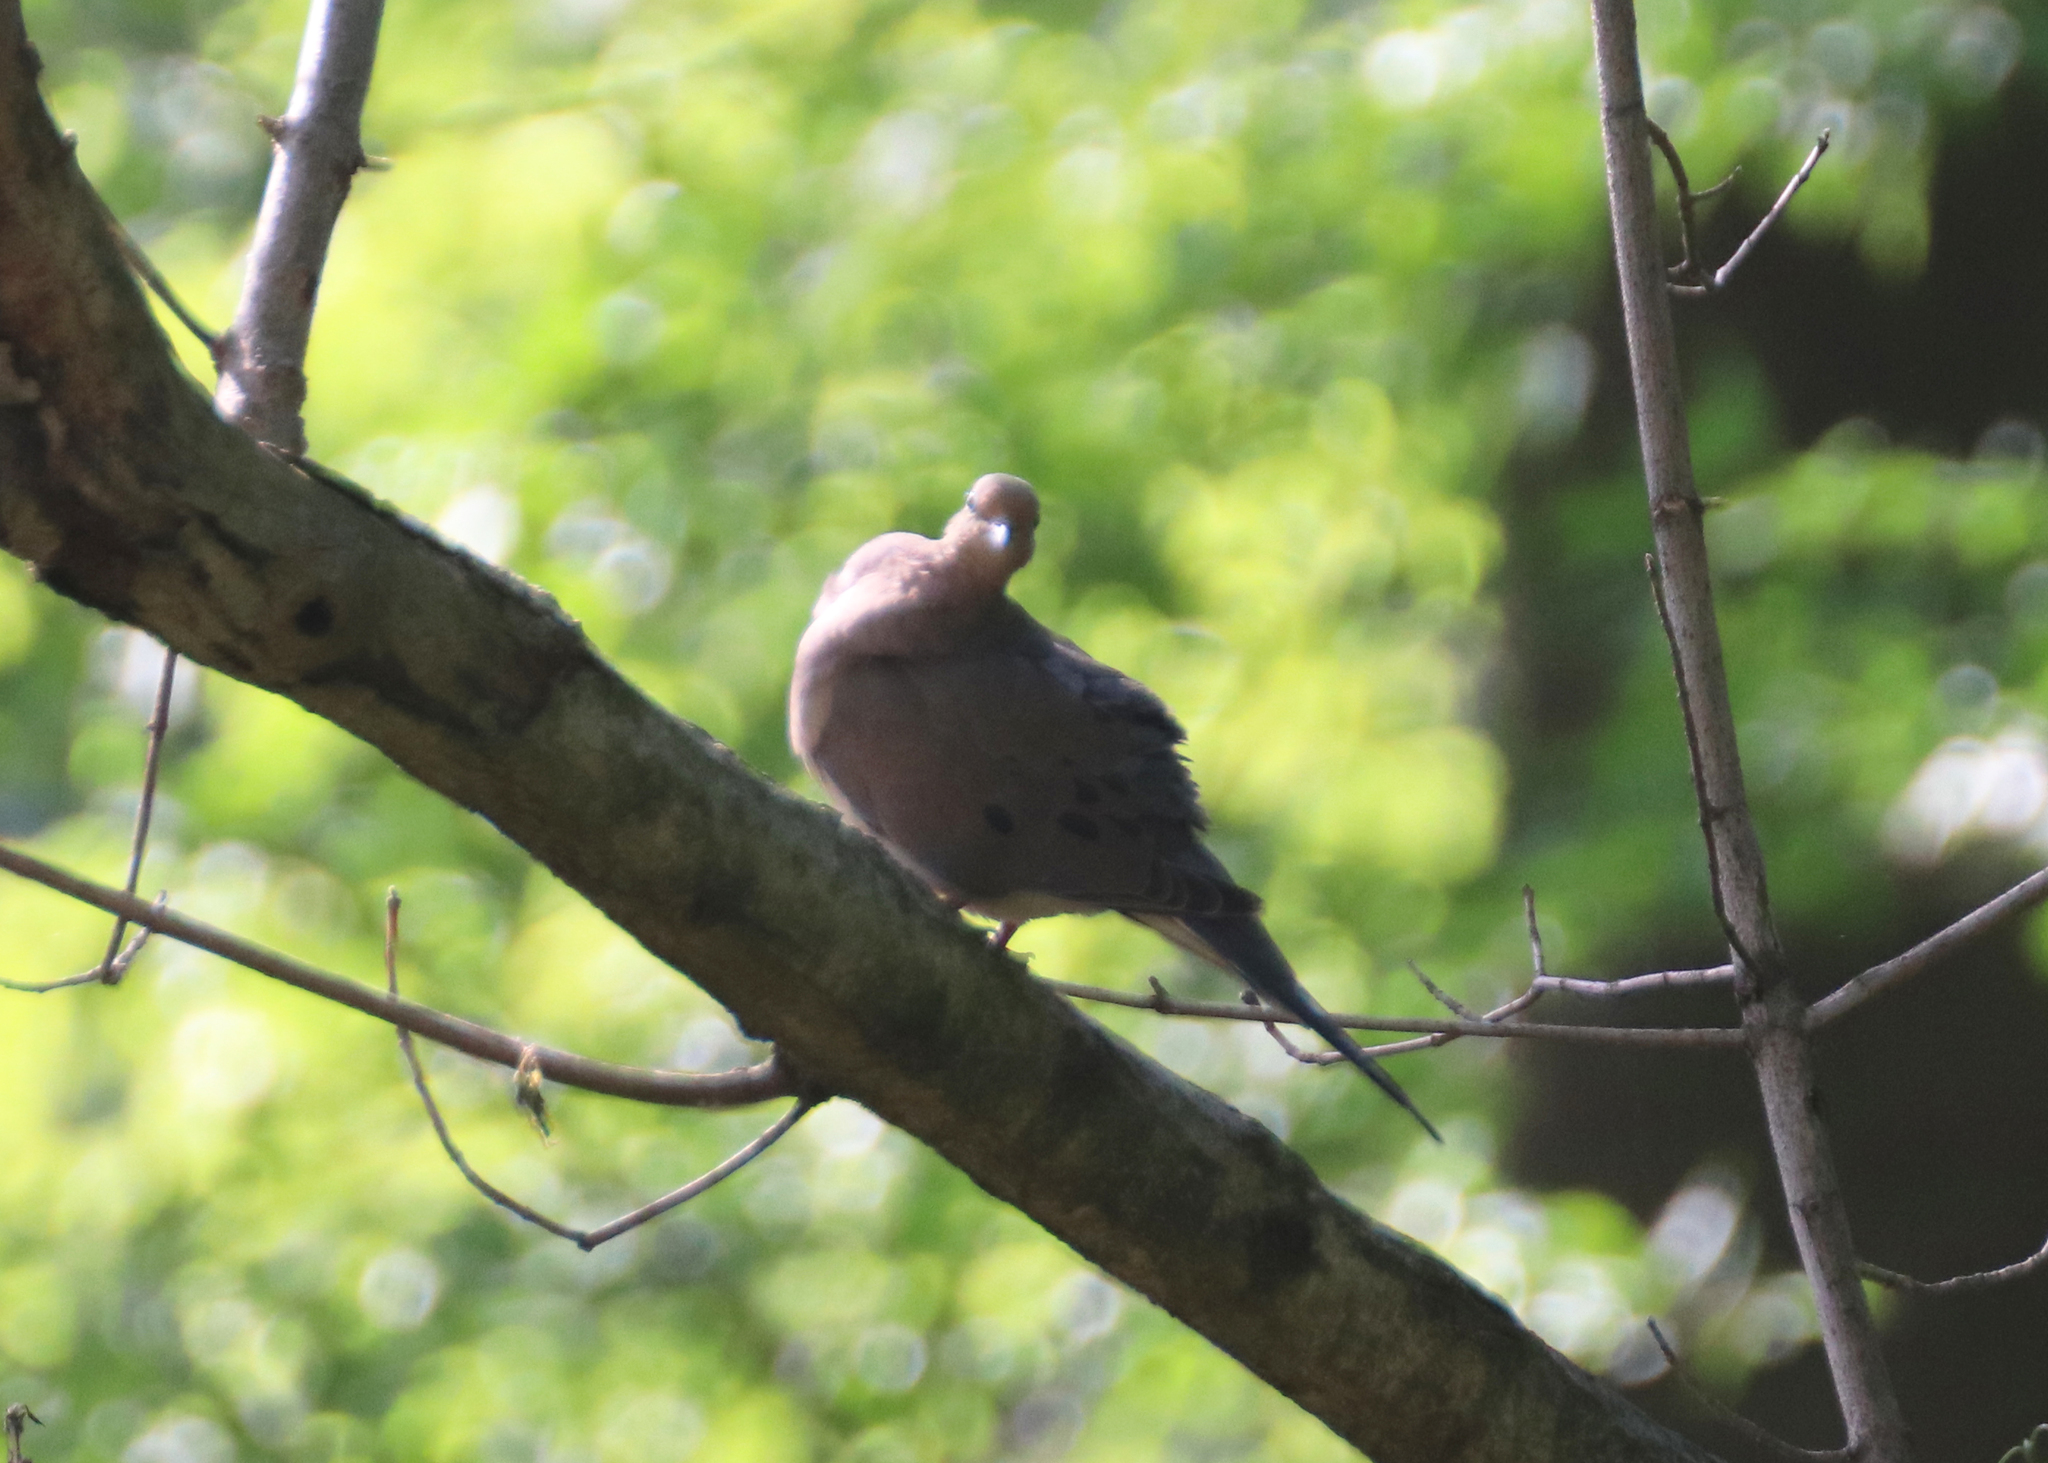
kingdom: Animalia
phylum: Chordata
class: Aves
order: Columbiformes
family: Columbidae
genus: Zenaida
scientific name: Zenaida macroura
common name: Mourning dove
